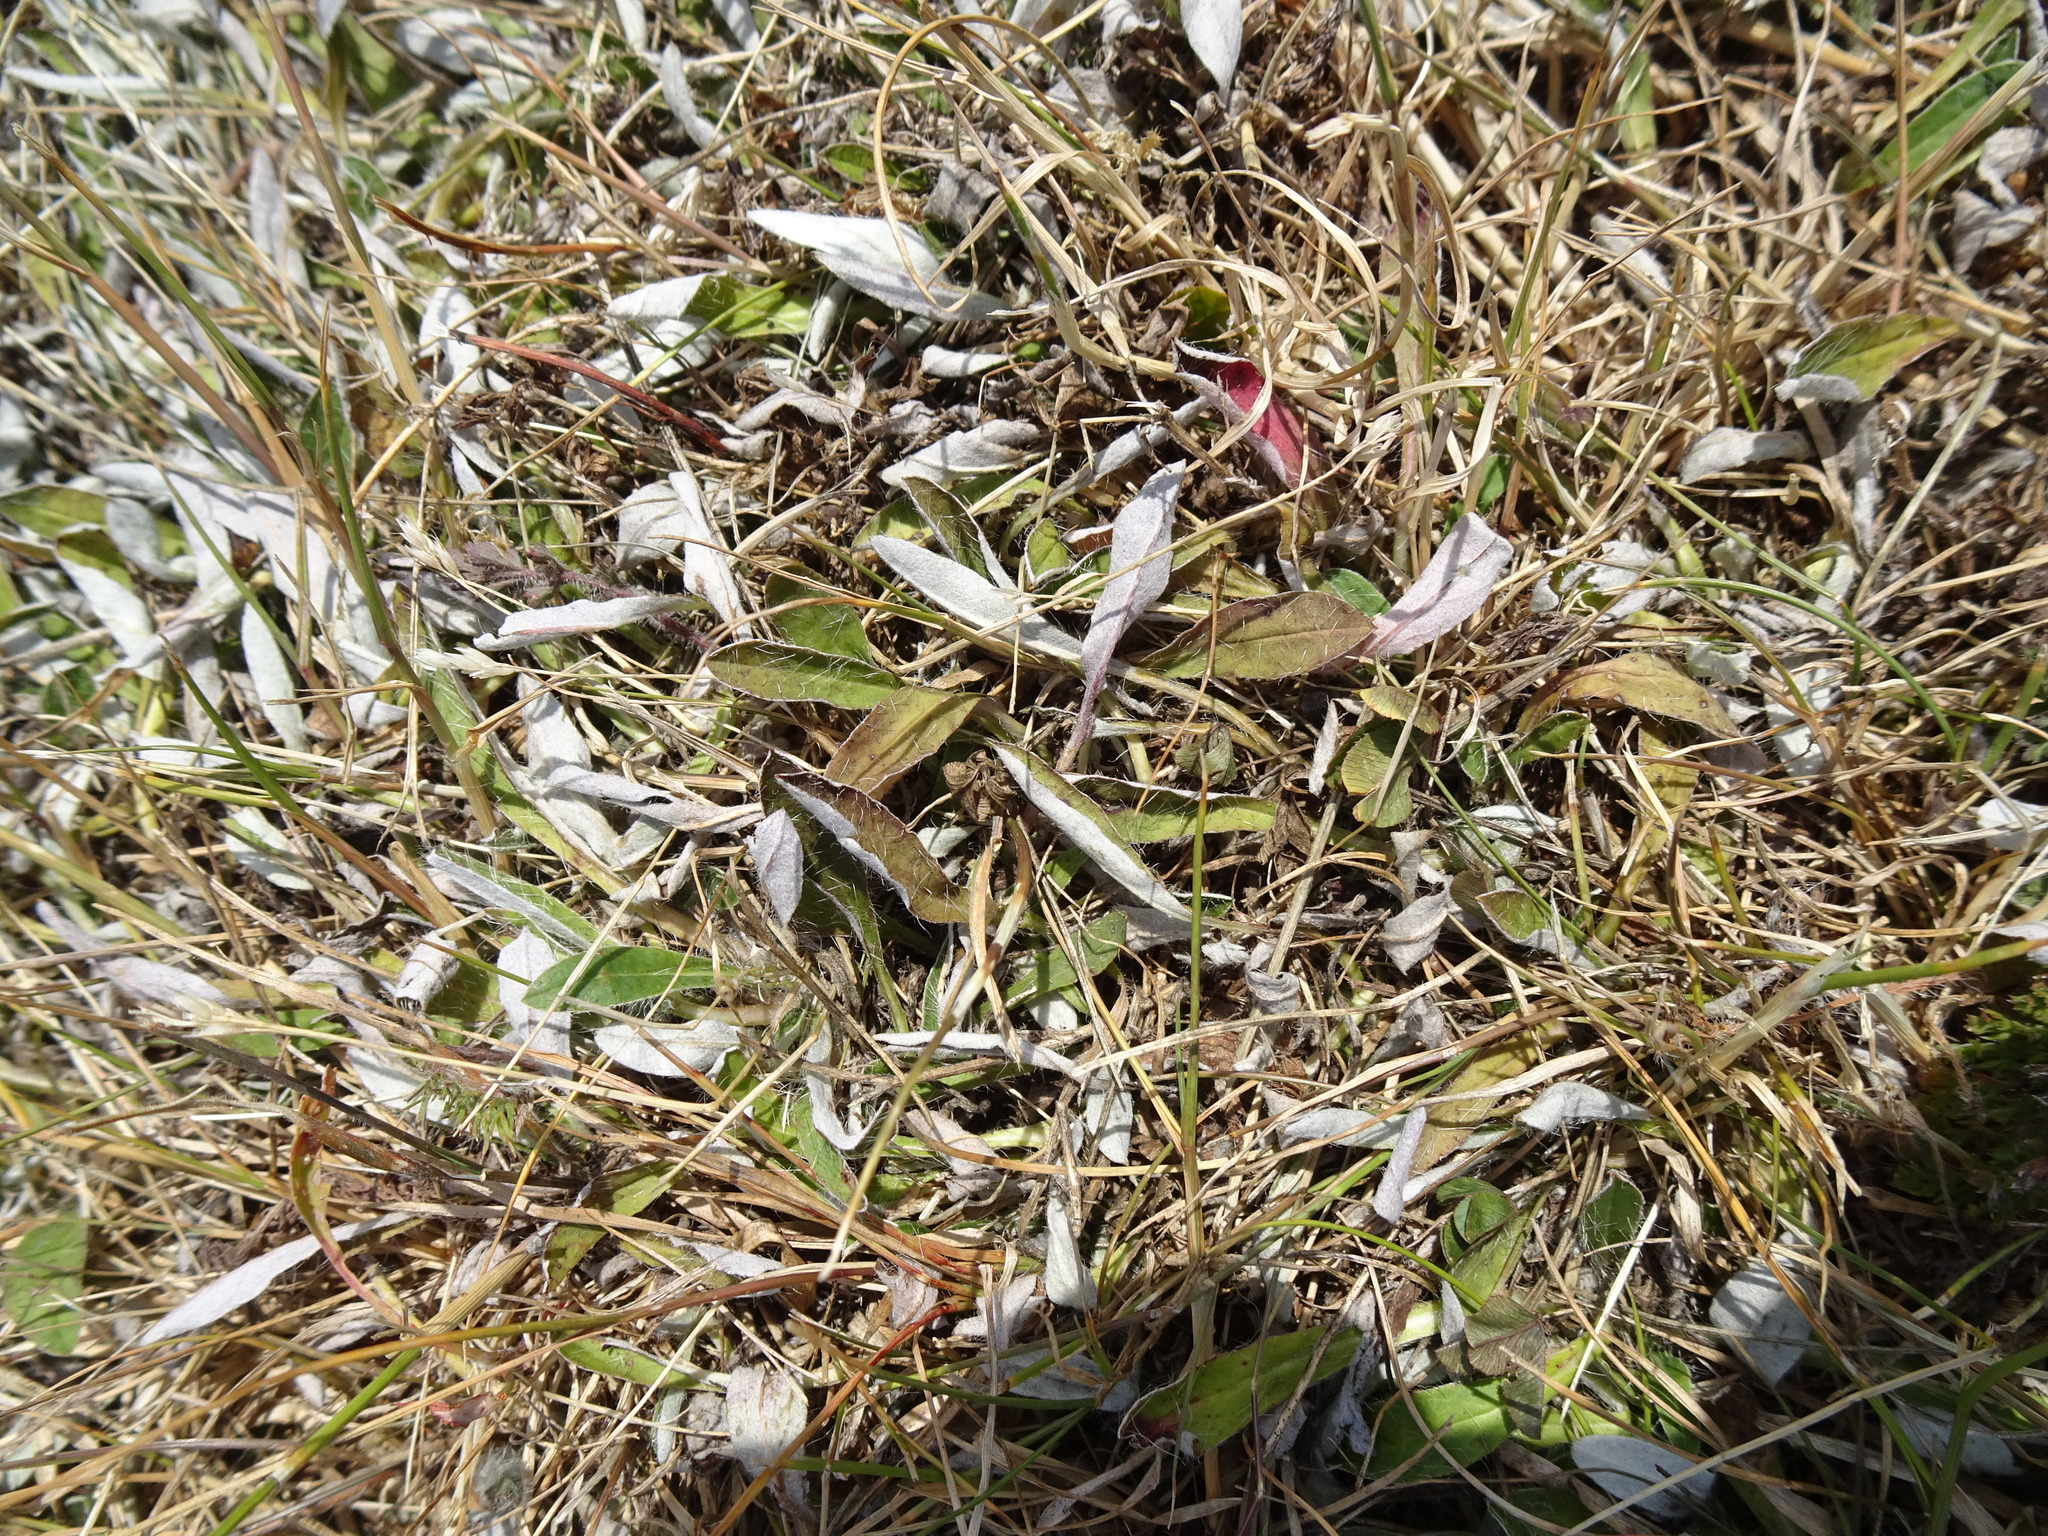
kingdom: Plantae
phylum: Tracheophyta
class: Magnoliopsida
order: Asterales
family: Asteraceae
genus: Pilosella
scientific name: Pilosella officinarum
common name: Mouse-ear hawkweed
